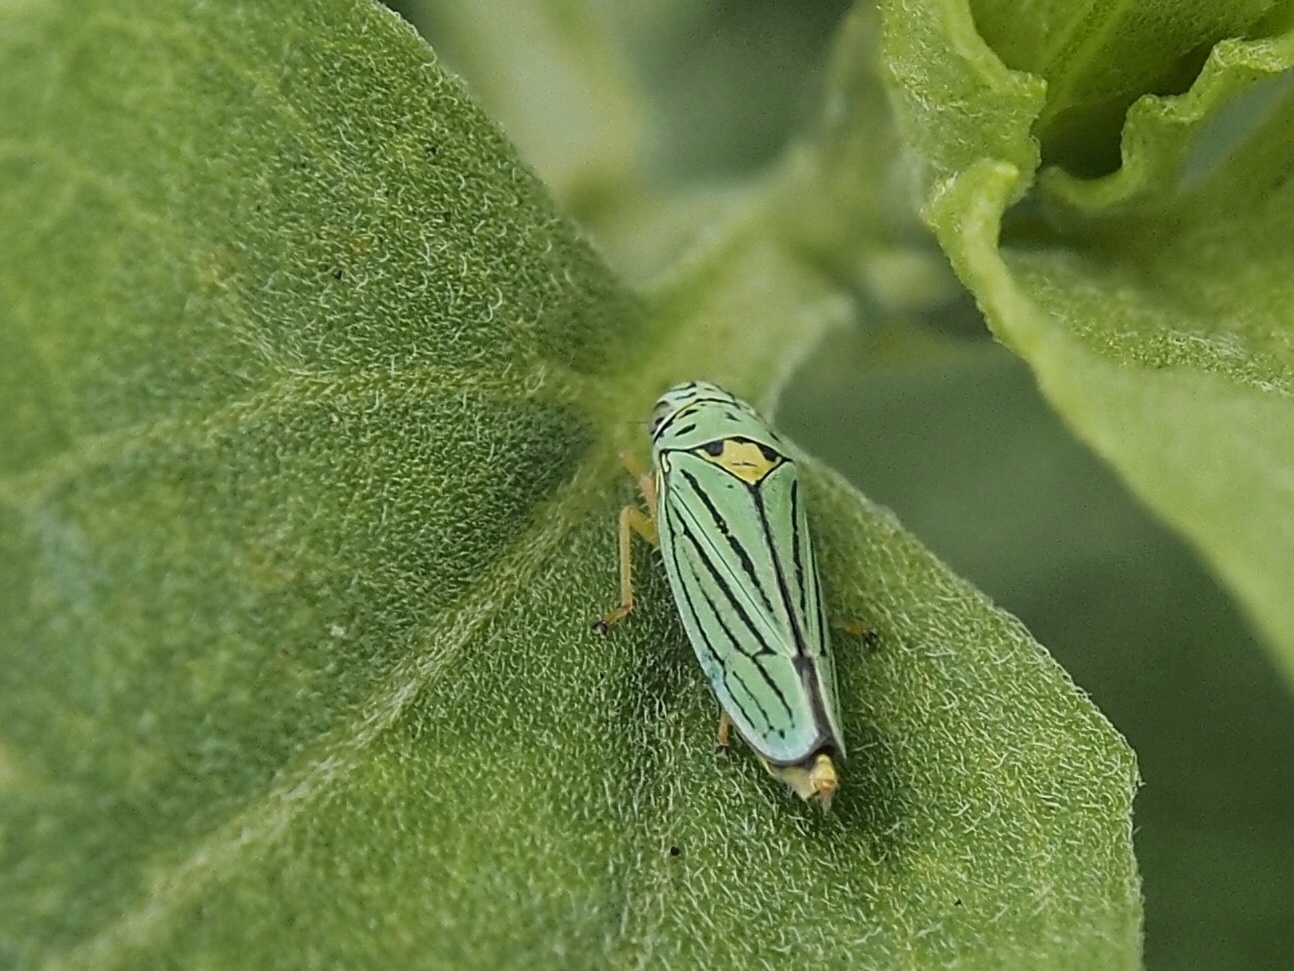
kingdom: Animalia
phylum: Arthropoda
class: Insecta
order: Hemiptera
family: Cicadellidae
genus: Graphocephala
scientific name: Graphocephala atropunctata
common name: Blue-green sharpshooter
